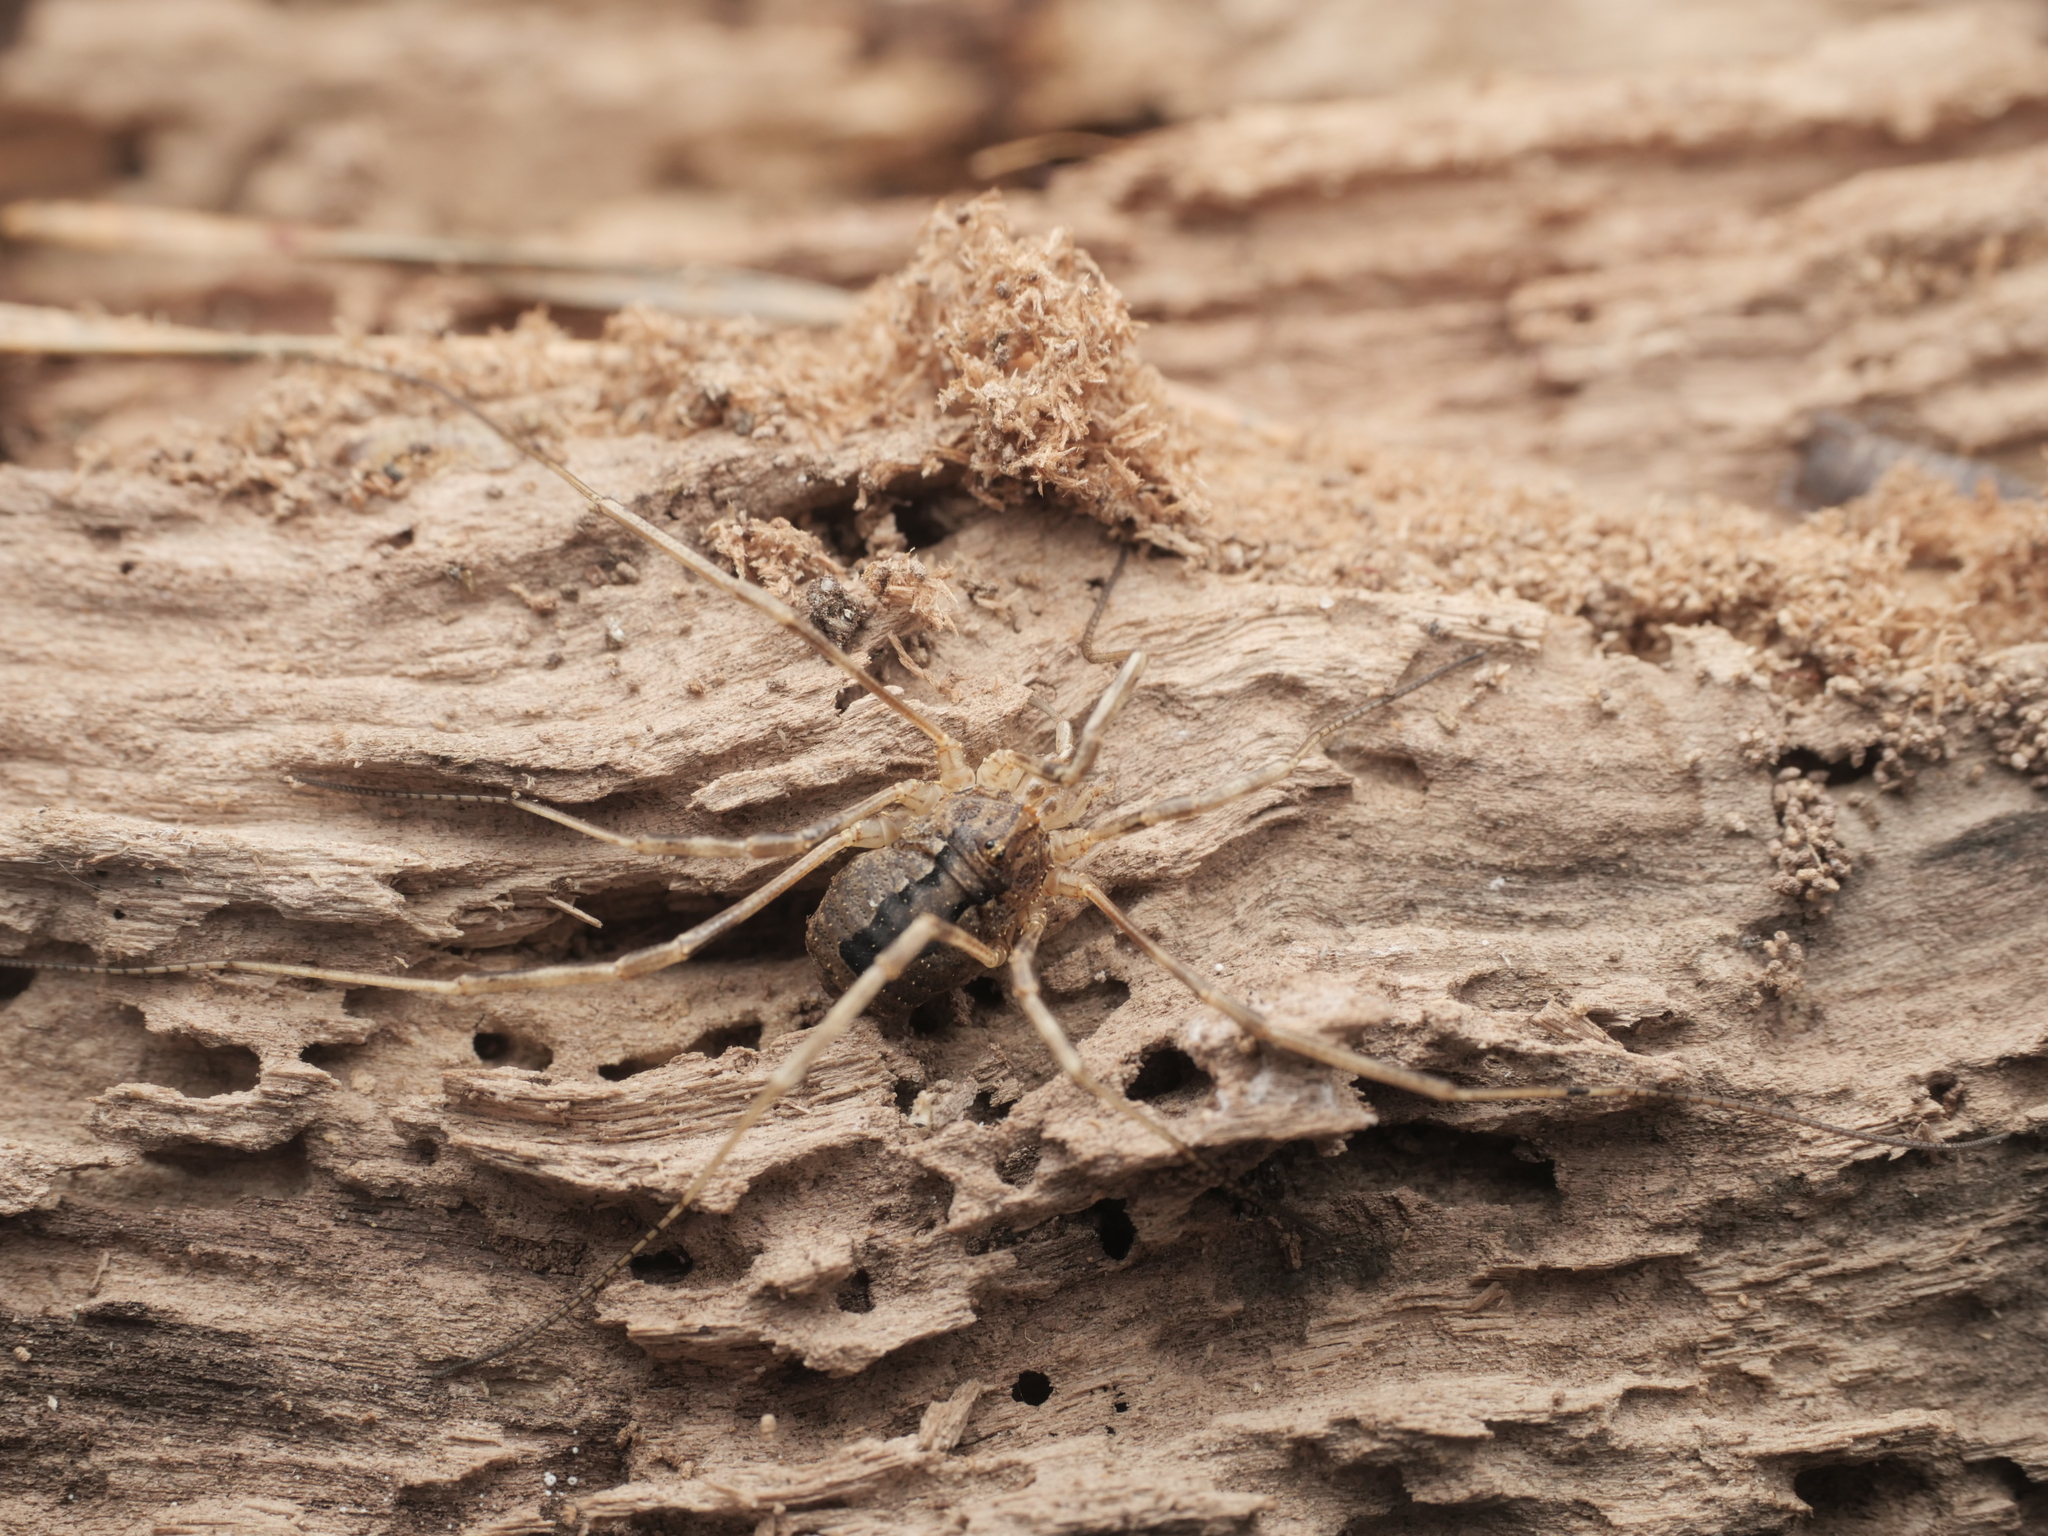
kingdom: Animalia
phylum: Arthropoda
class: Arachnida
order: Opiliones
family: Phalangiidae
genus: Odiellus
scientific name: Odiellus spinosus
